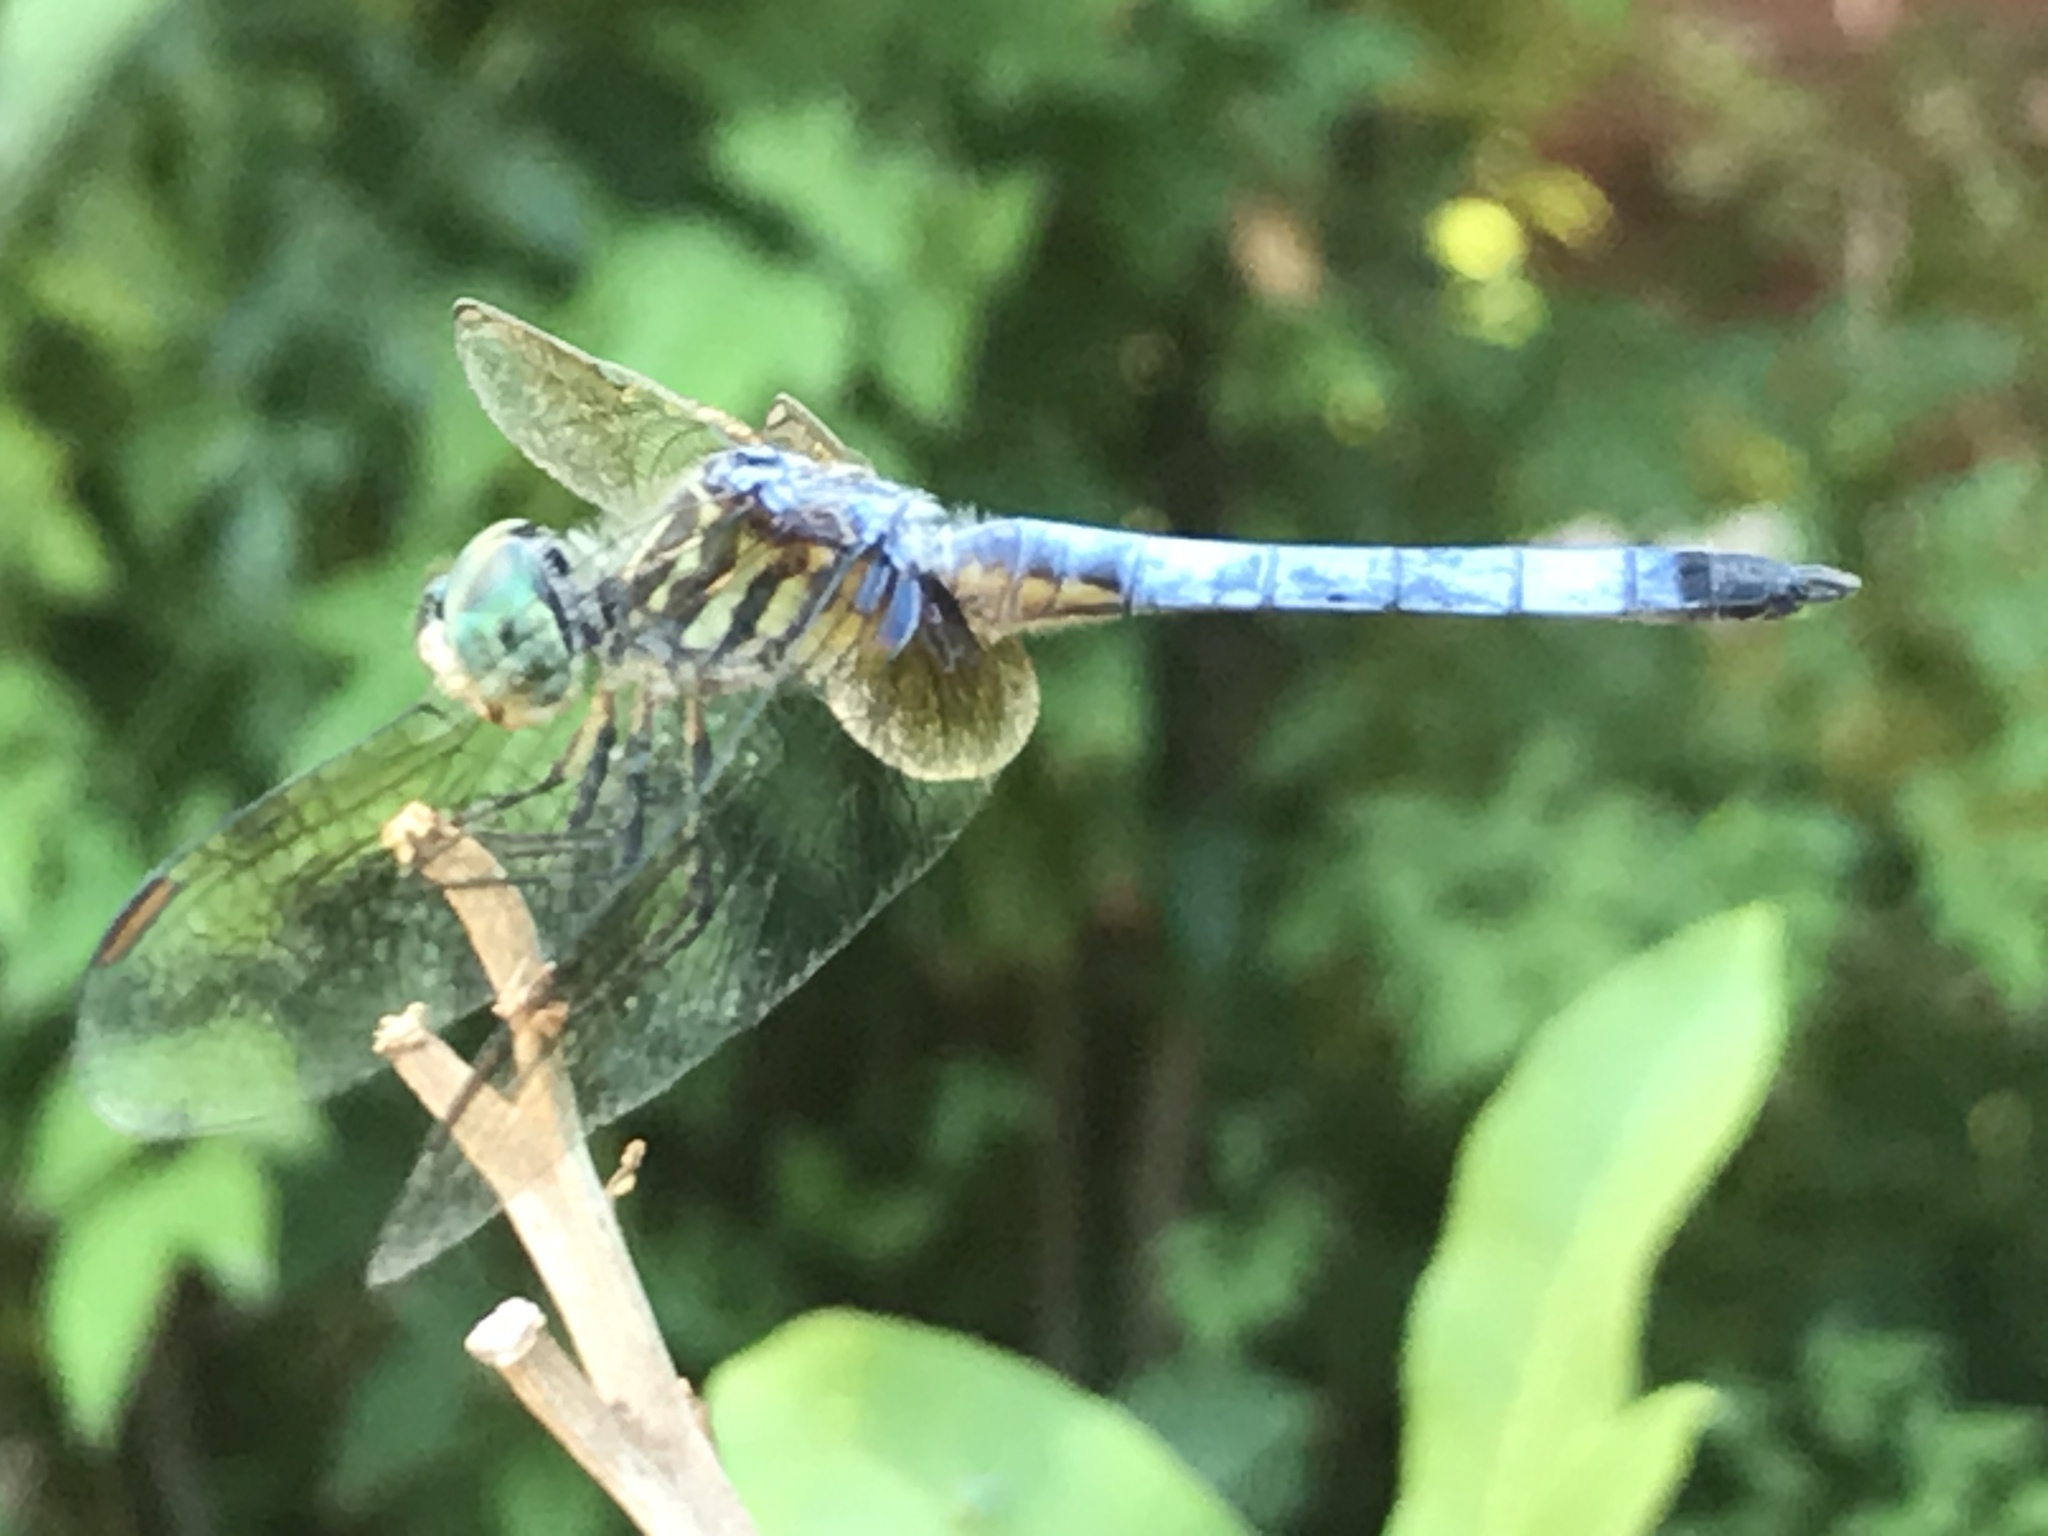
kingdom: Animalia
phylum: Arthropoda
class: Insecta
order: Odonata
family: Libellulidae
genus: Pachydiplax
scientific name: Pachydiplax longipennis
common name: Blue dasher
